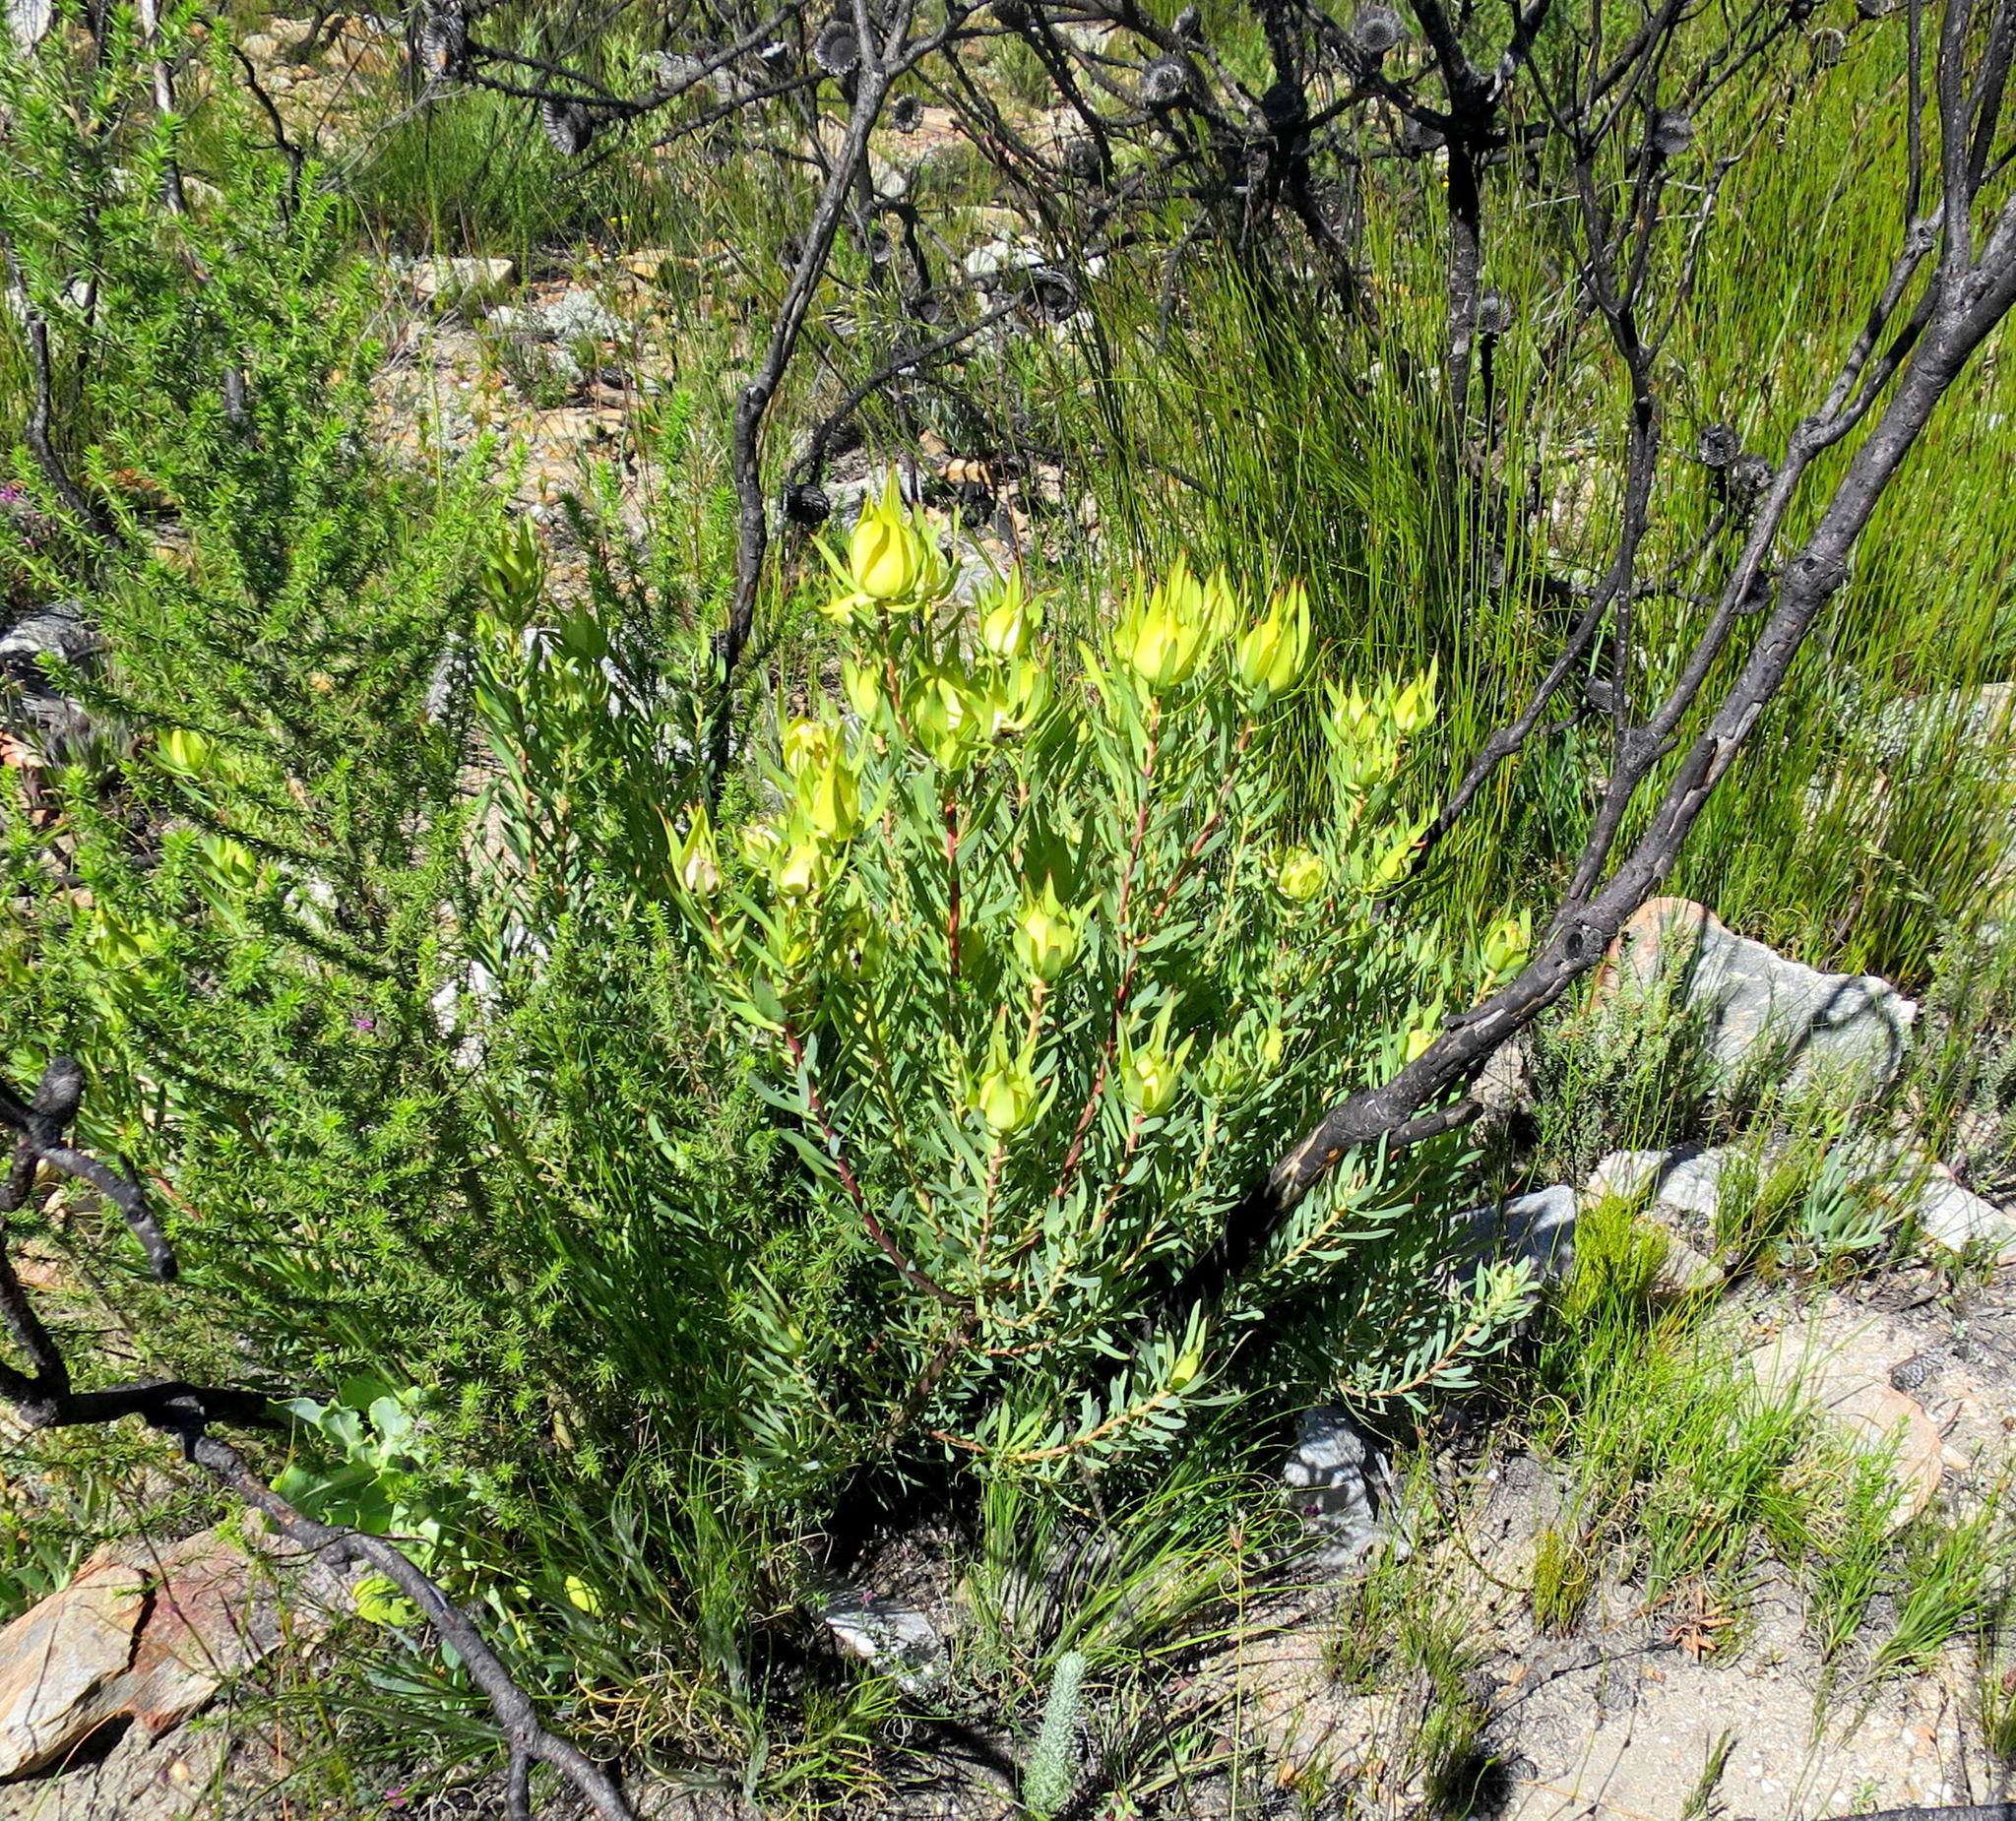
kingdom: Plantae
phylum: Tracheophyta
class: Magnoliopsida
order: Proteales
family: Proteaceae
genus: Leucadendron
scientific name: Leucadendron salignum
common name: Common sunshine conebush
